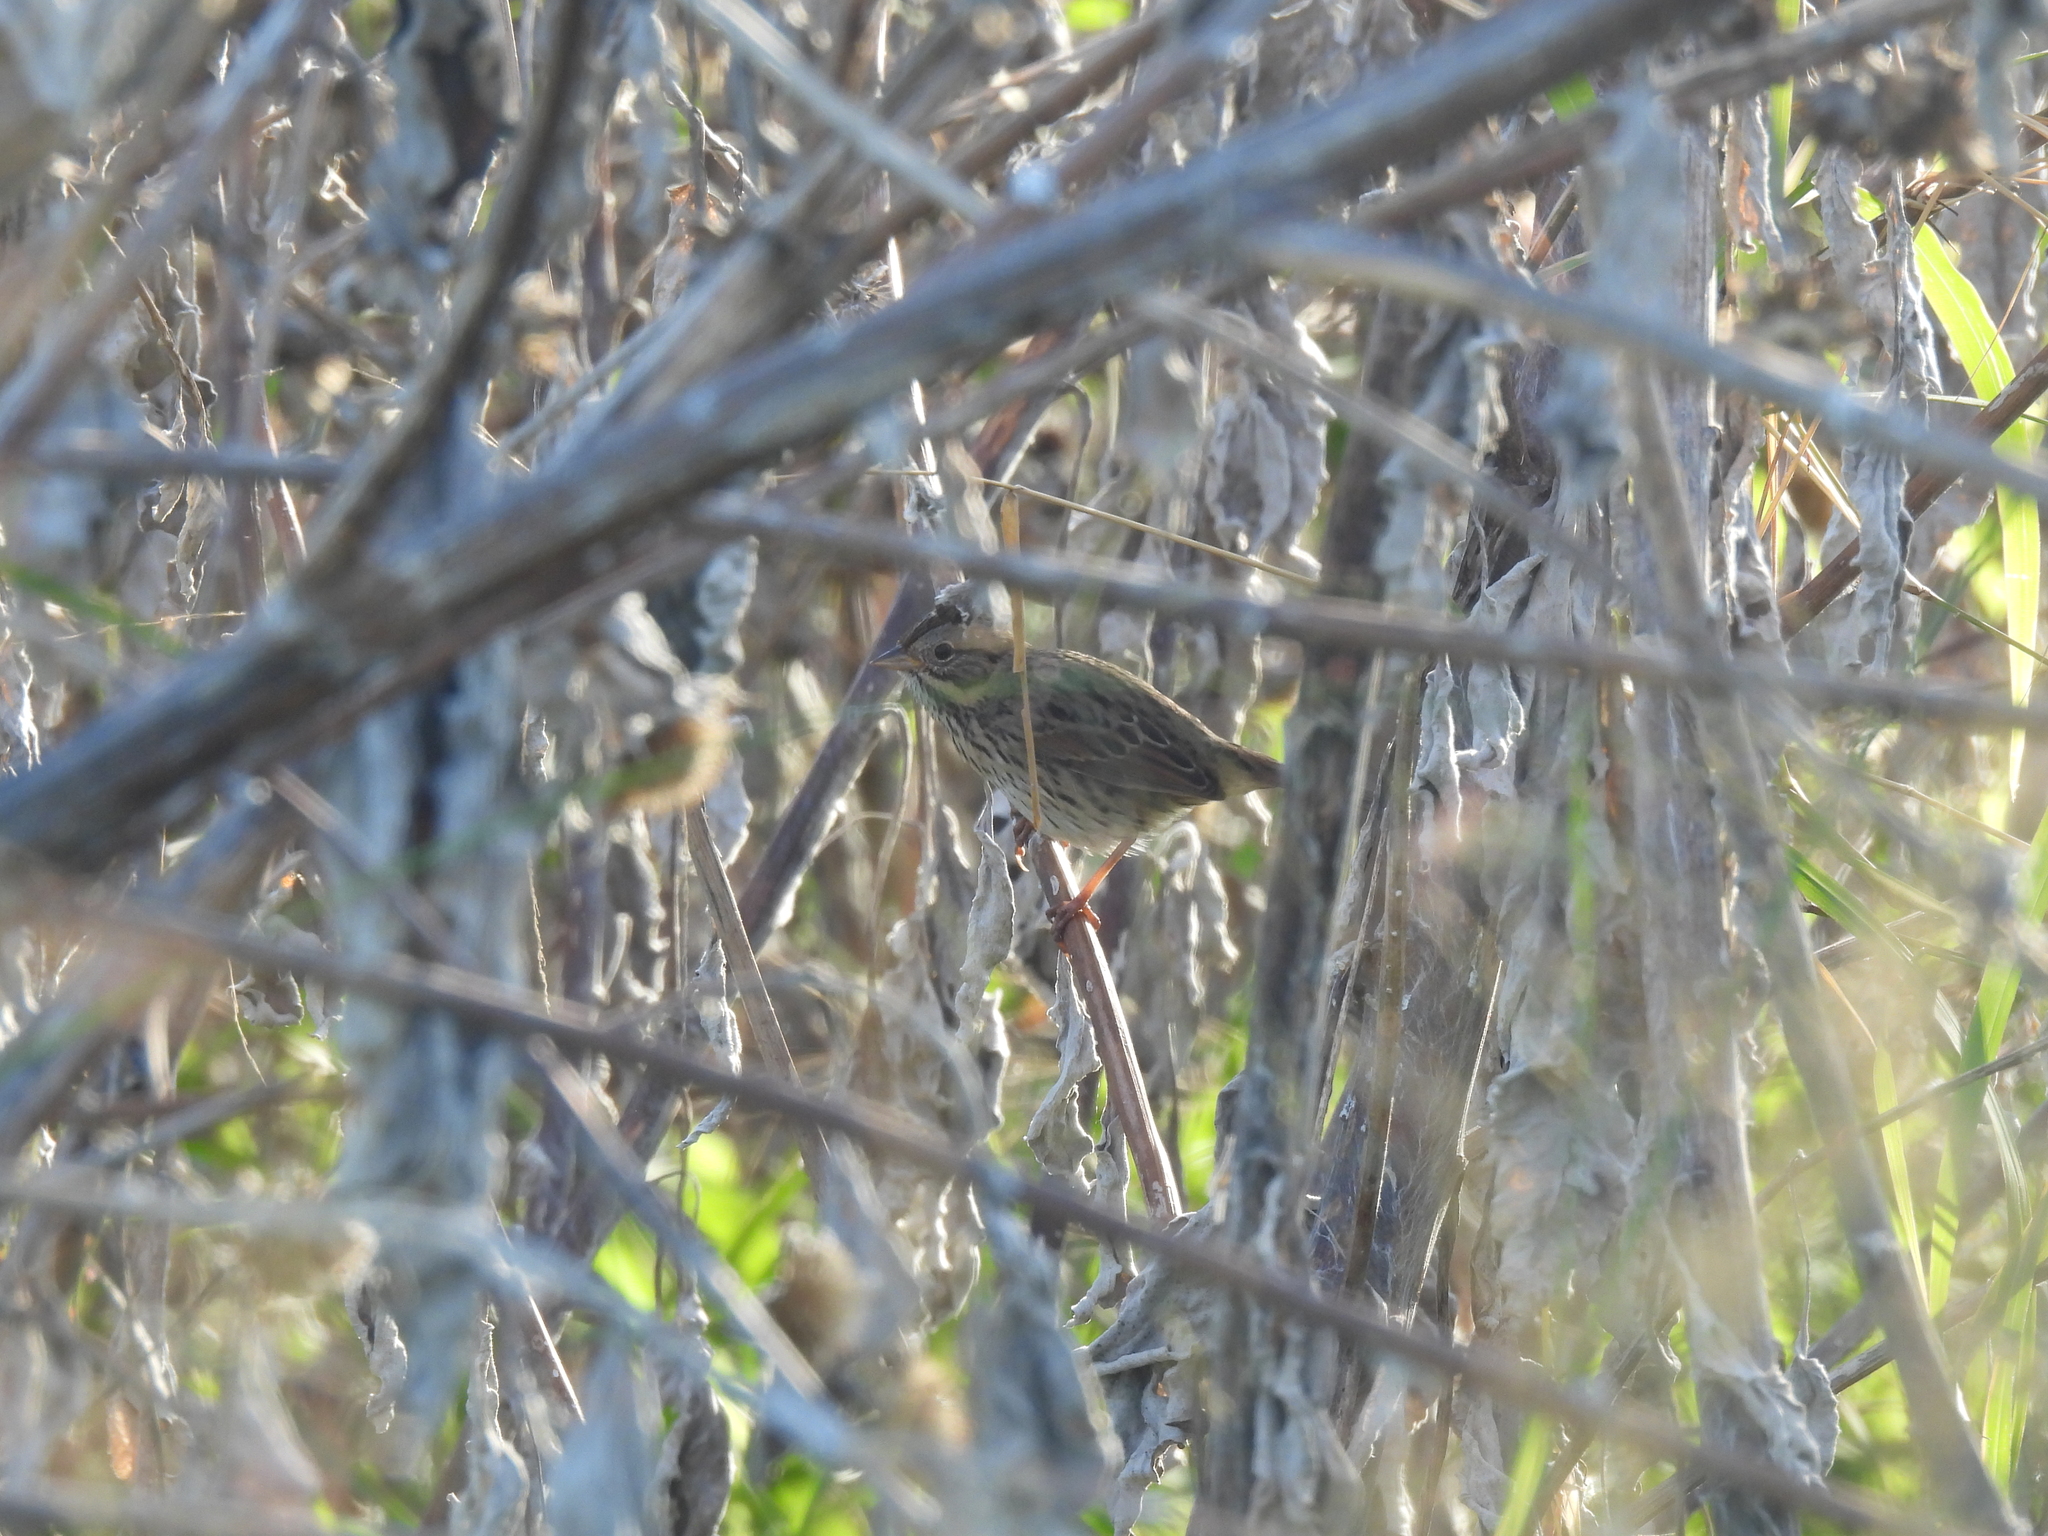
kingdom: Animalia
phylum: Chordata
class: Aves
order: Passeriformes
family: Passerellidae
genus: Melospiza
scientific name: Melospiza lincolnii
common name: Lincoln's sparrow
